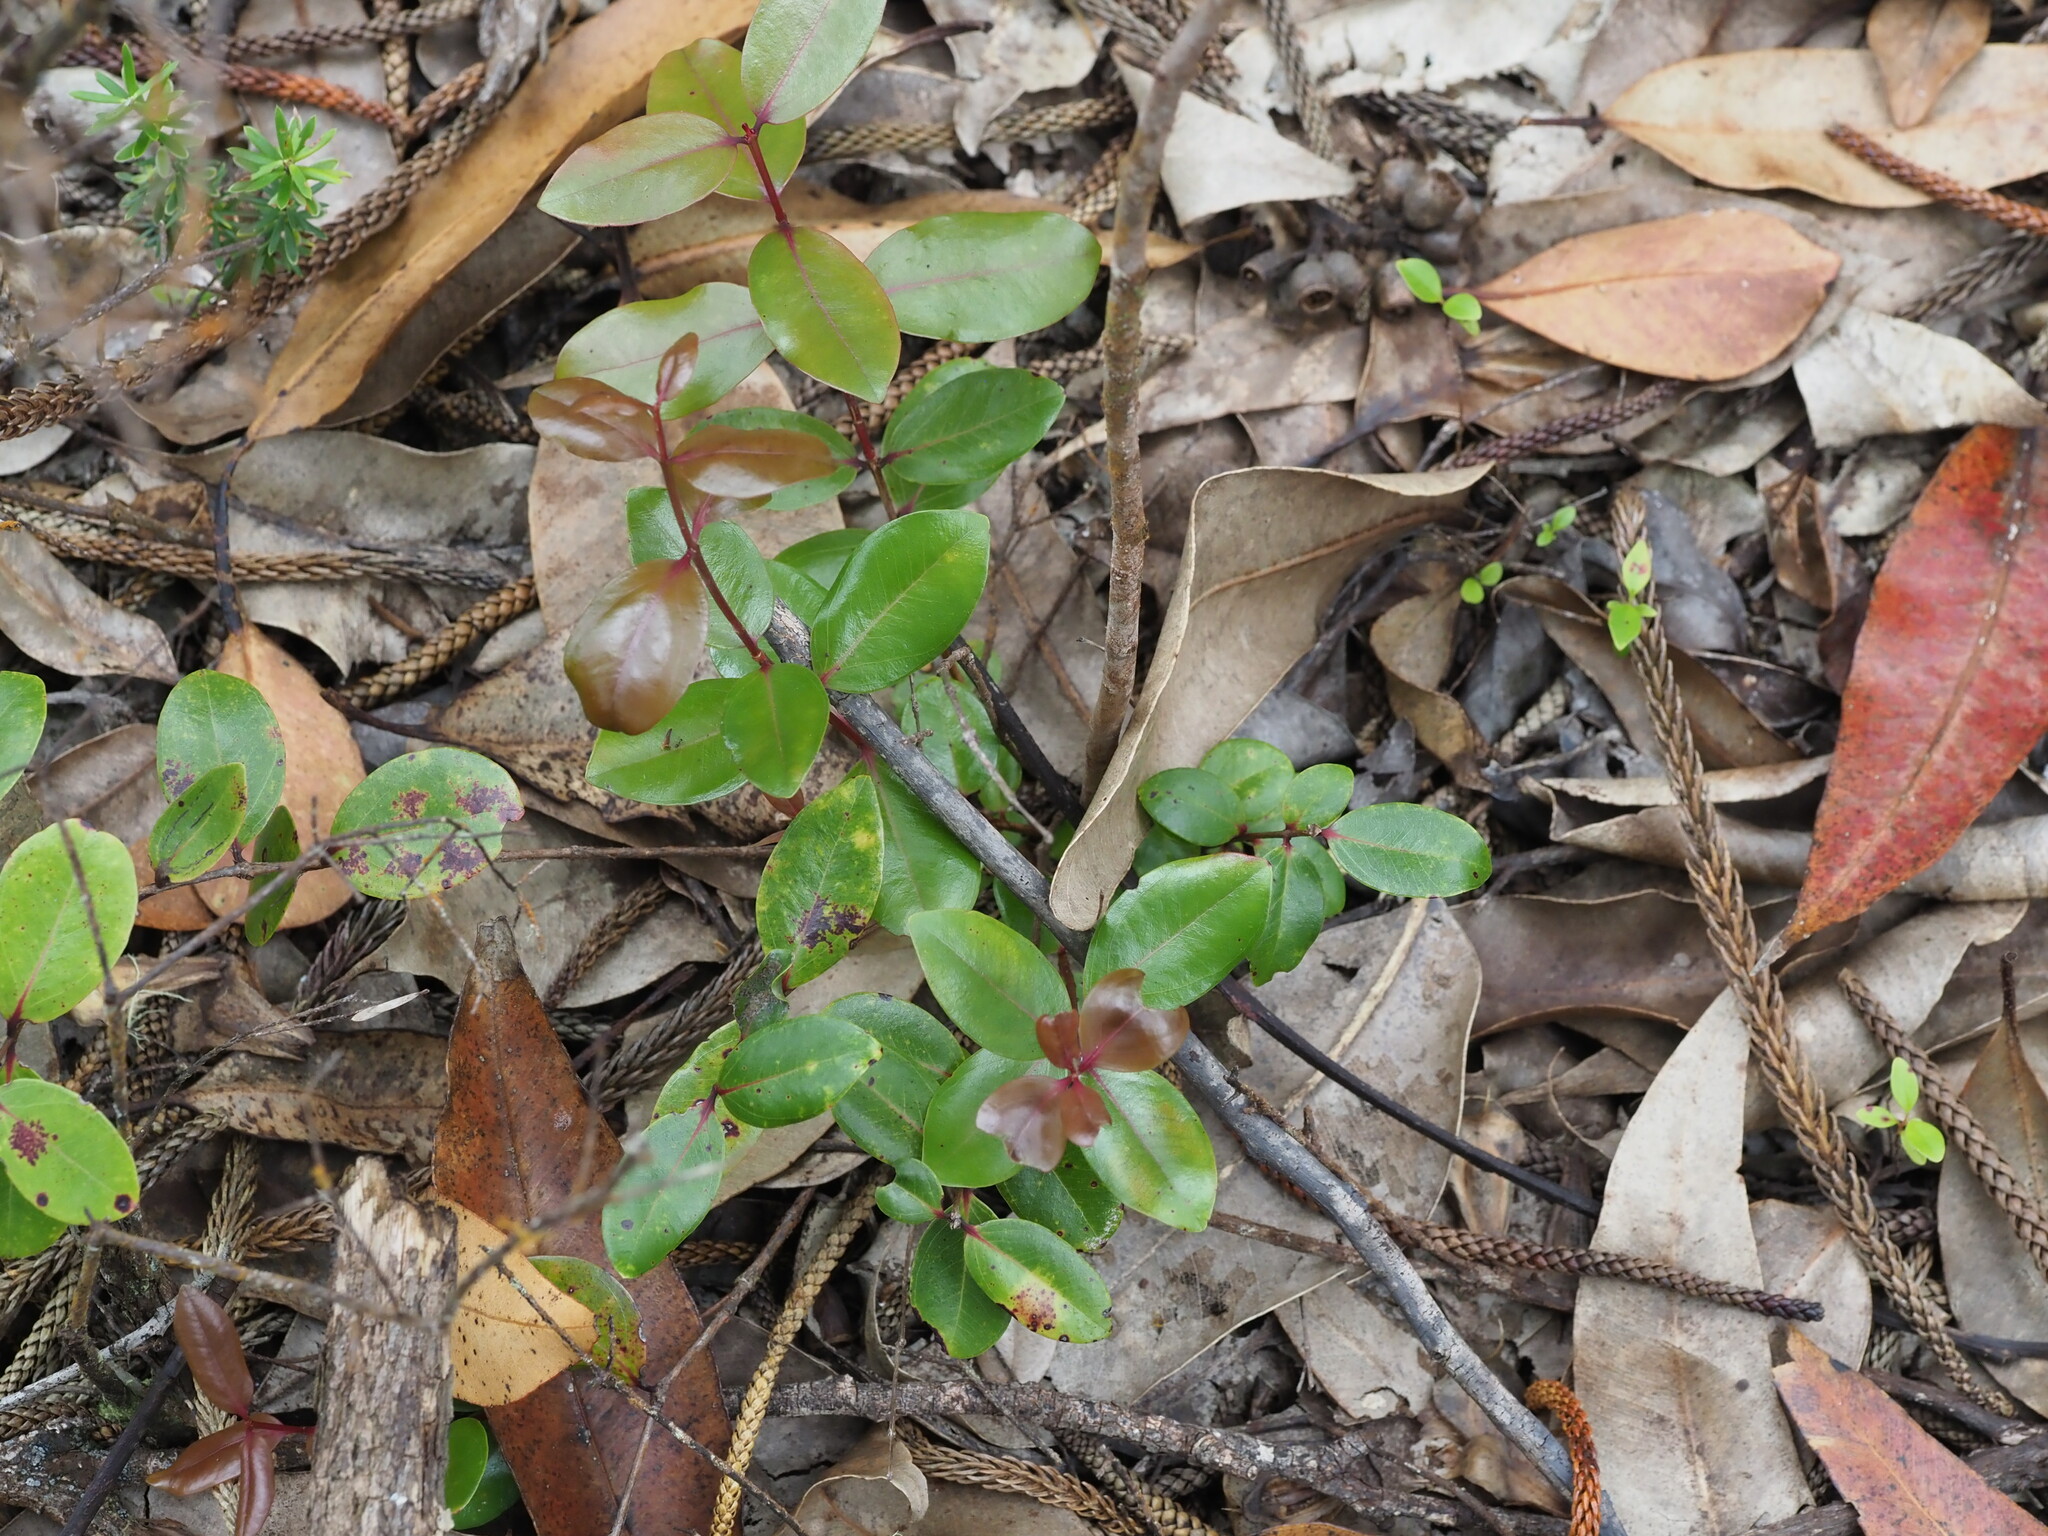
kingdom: Plantae
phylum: Tracheophyta
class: Magnoliopsida
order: Myrtales
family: Myrtaceae
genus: Metrosideros
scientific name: Metrosideros polymorpha
